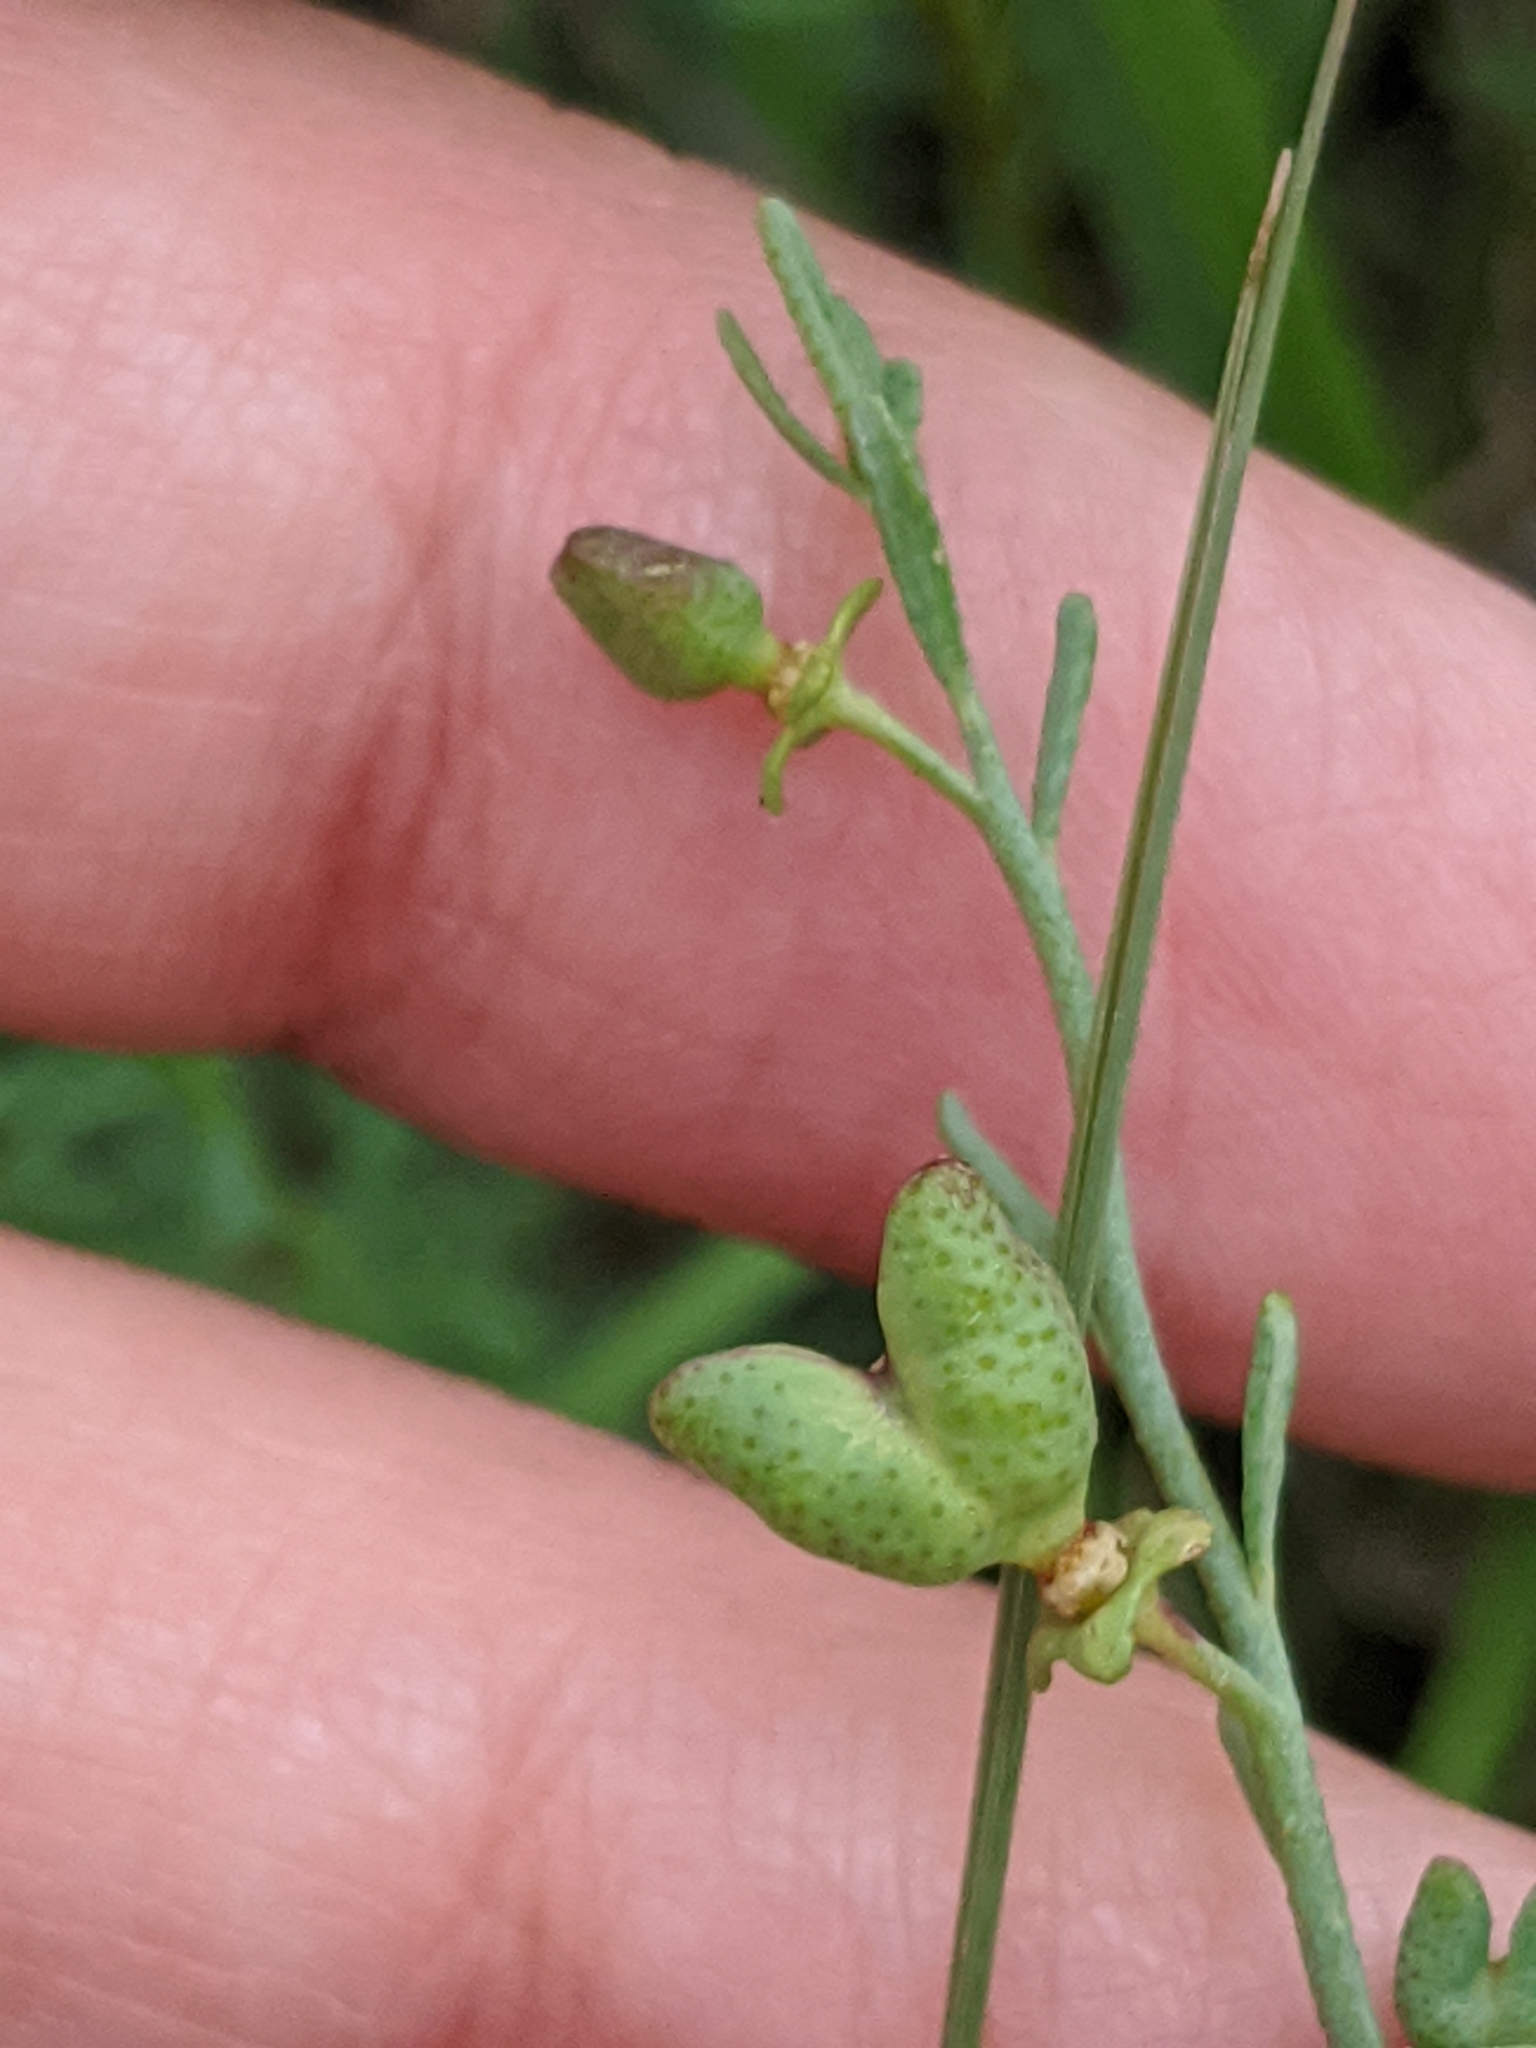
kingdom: Plantae
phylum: Tracheophyta
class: Magnoliopsida
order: Sapindales
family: Rutaceae
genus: Thamnosma
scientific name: Thamnosma texana
